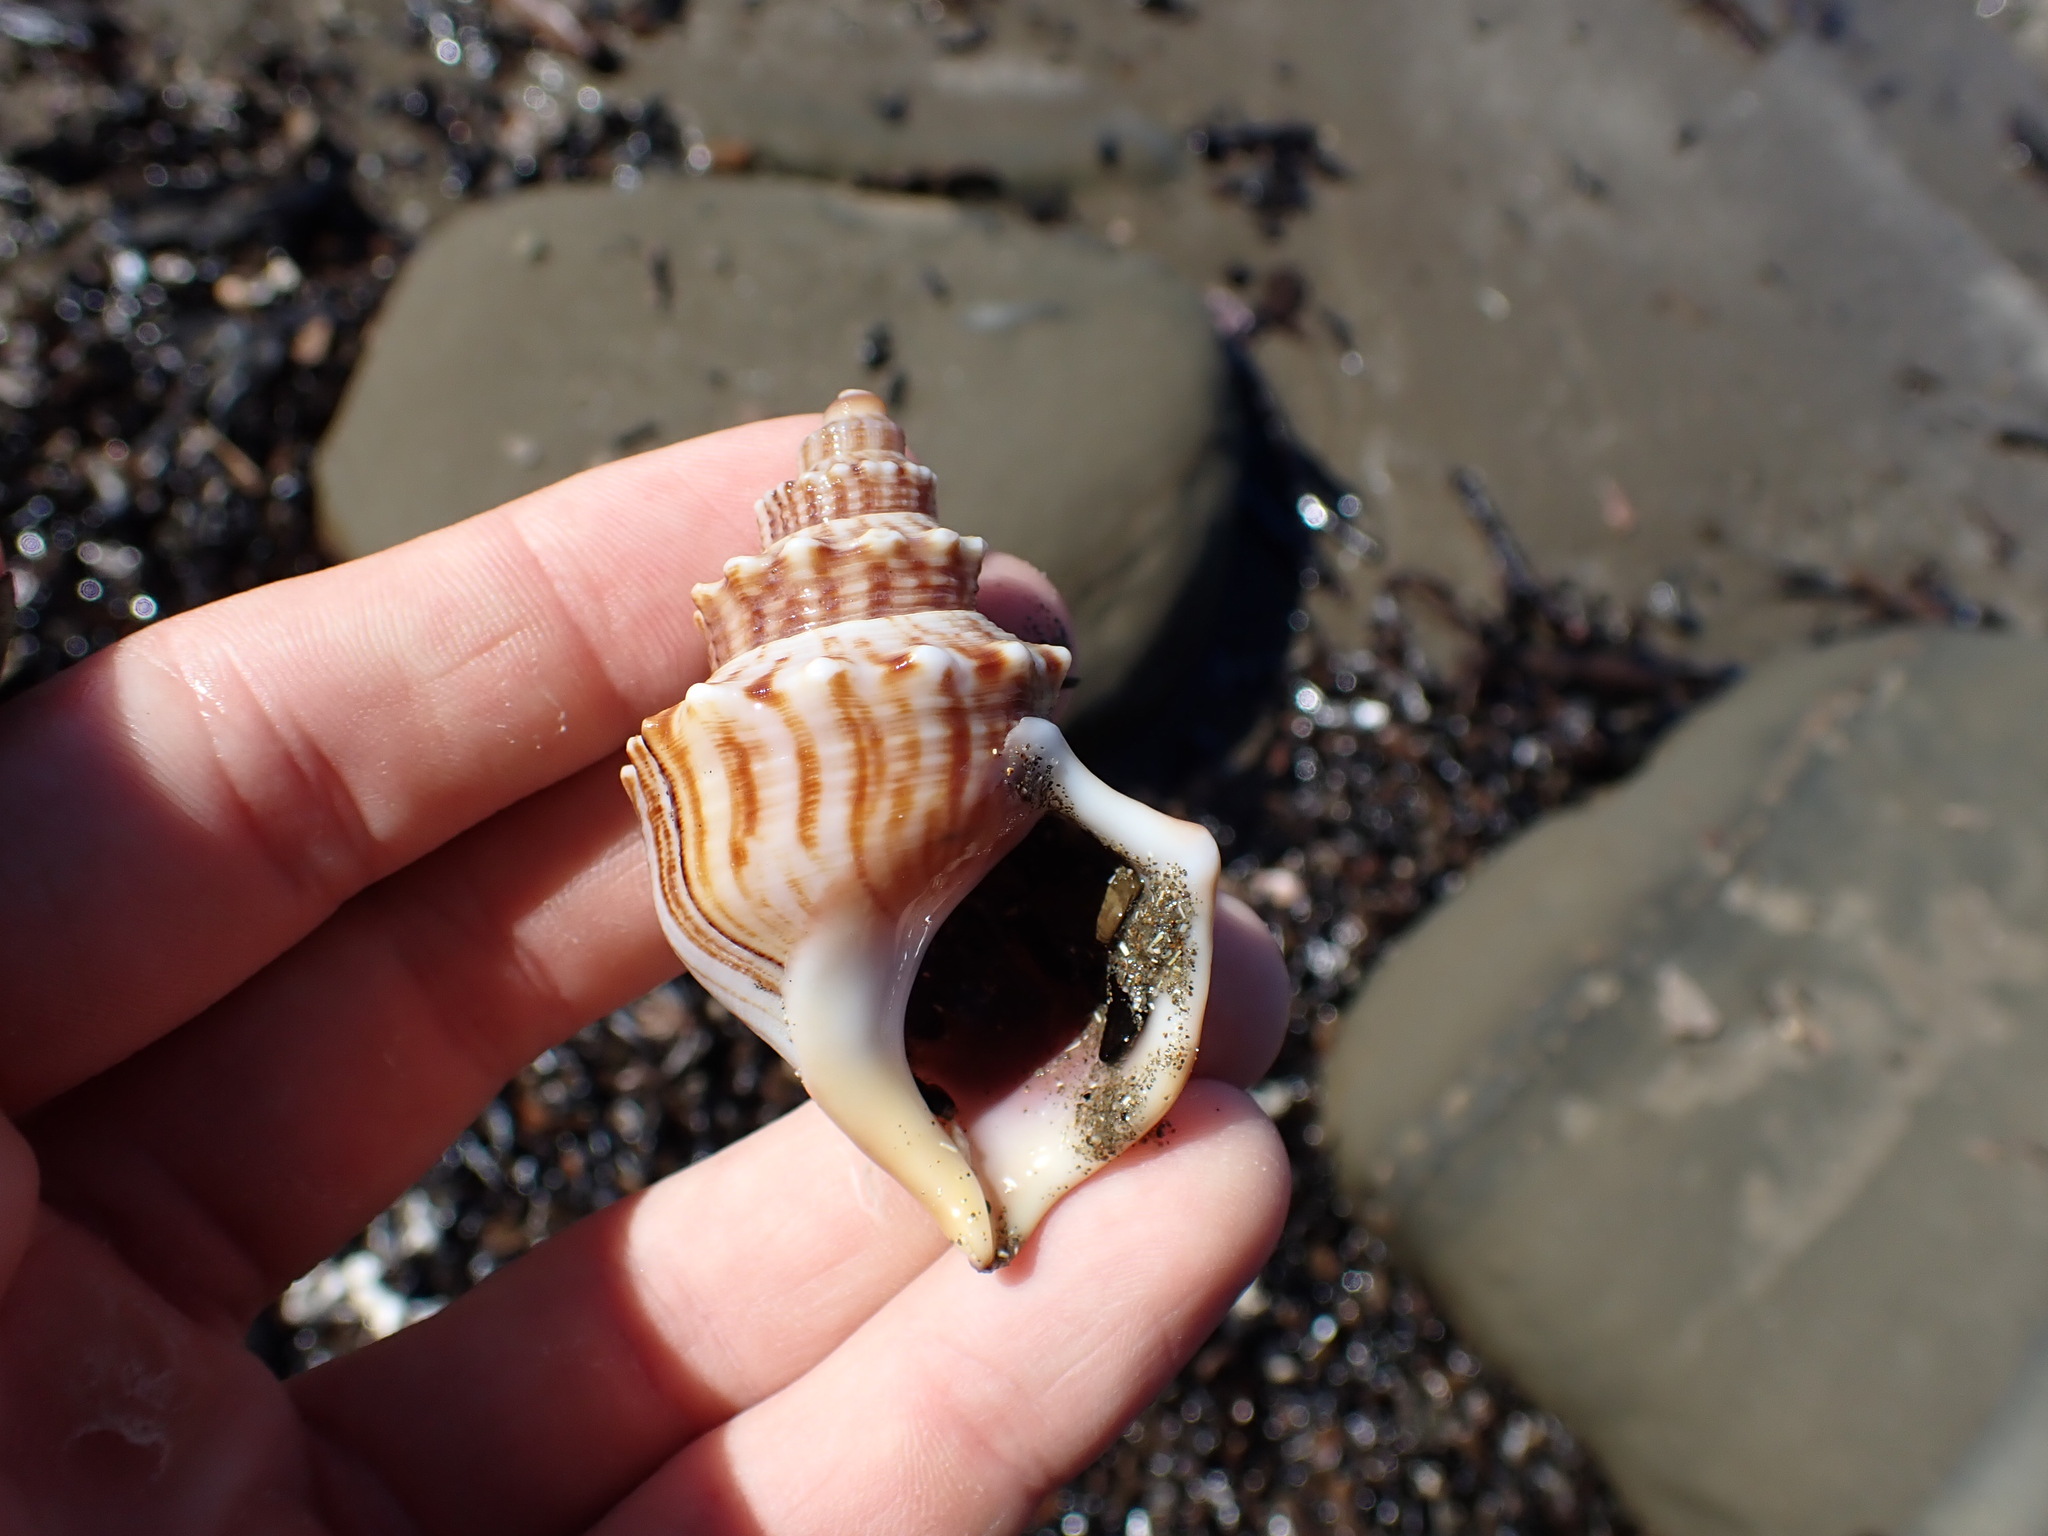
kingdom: Animalia
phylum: Mollusca
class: Gastropoda
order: Littorinimorpha
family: Struthiolariidae
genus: Struthiolaria
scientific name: Struthiolaria papulosa
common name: Large ostrich foot
